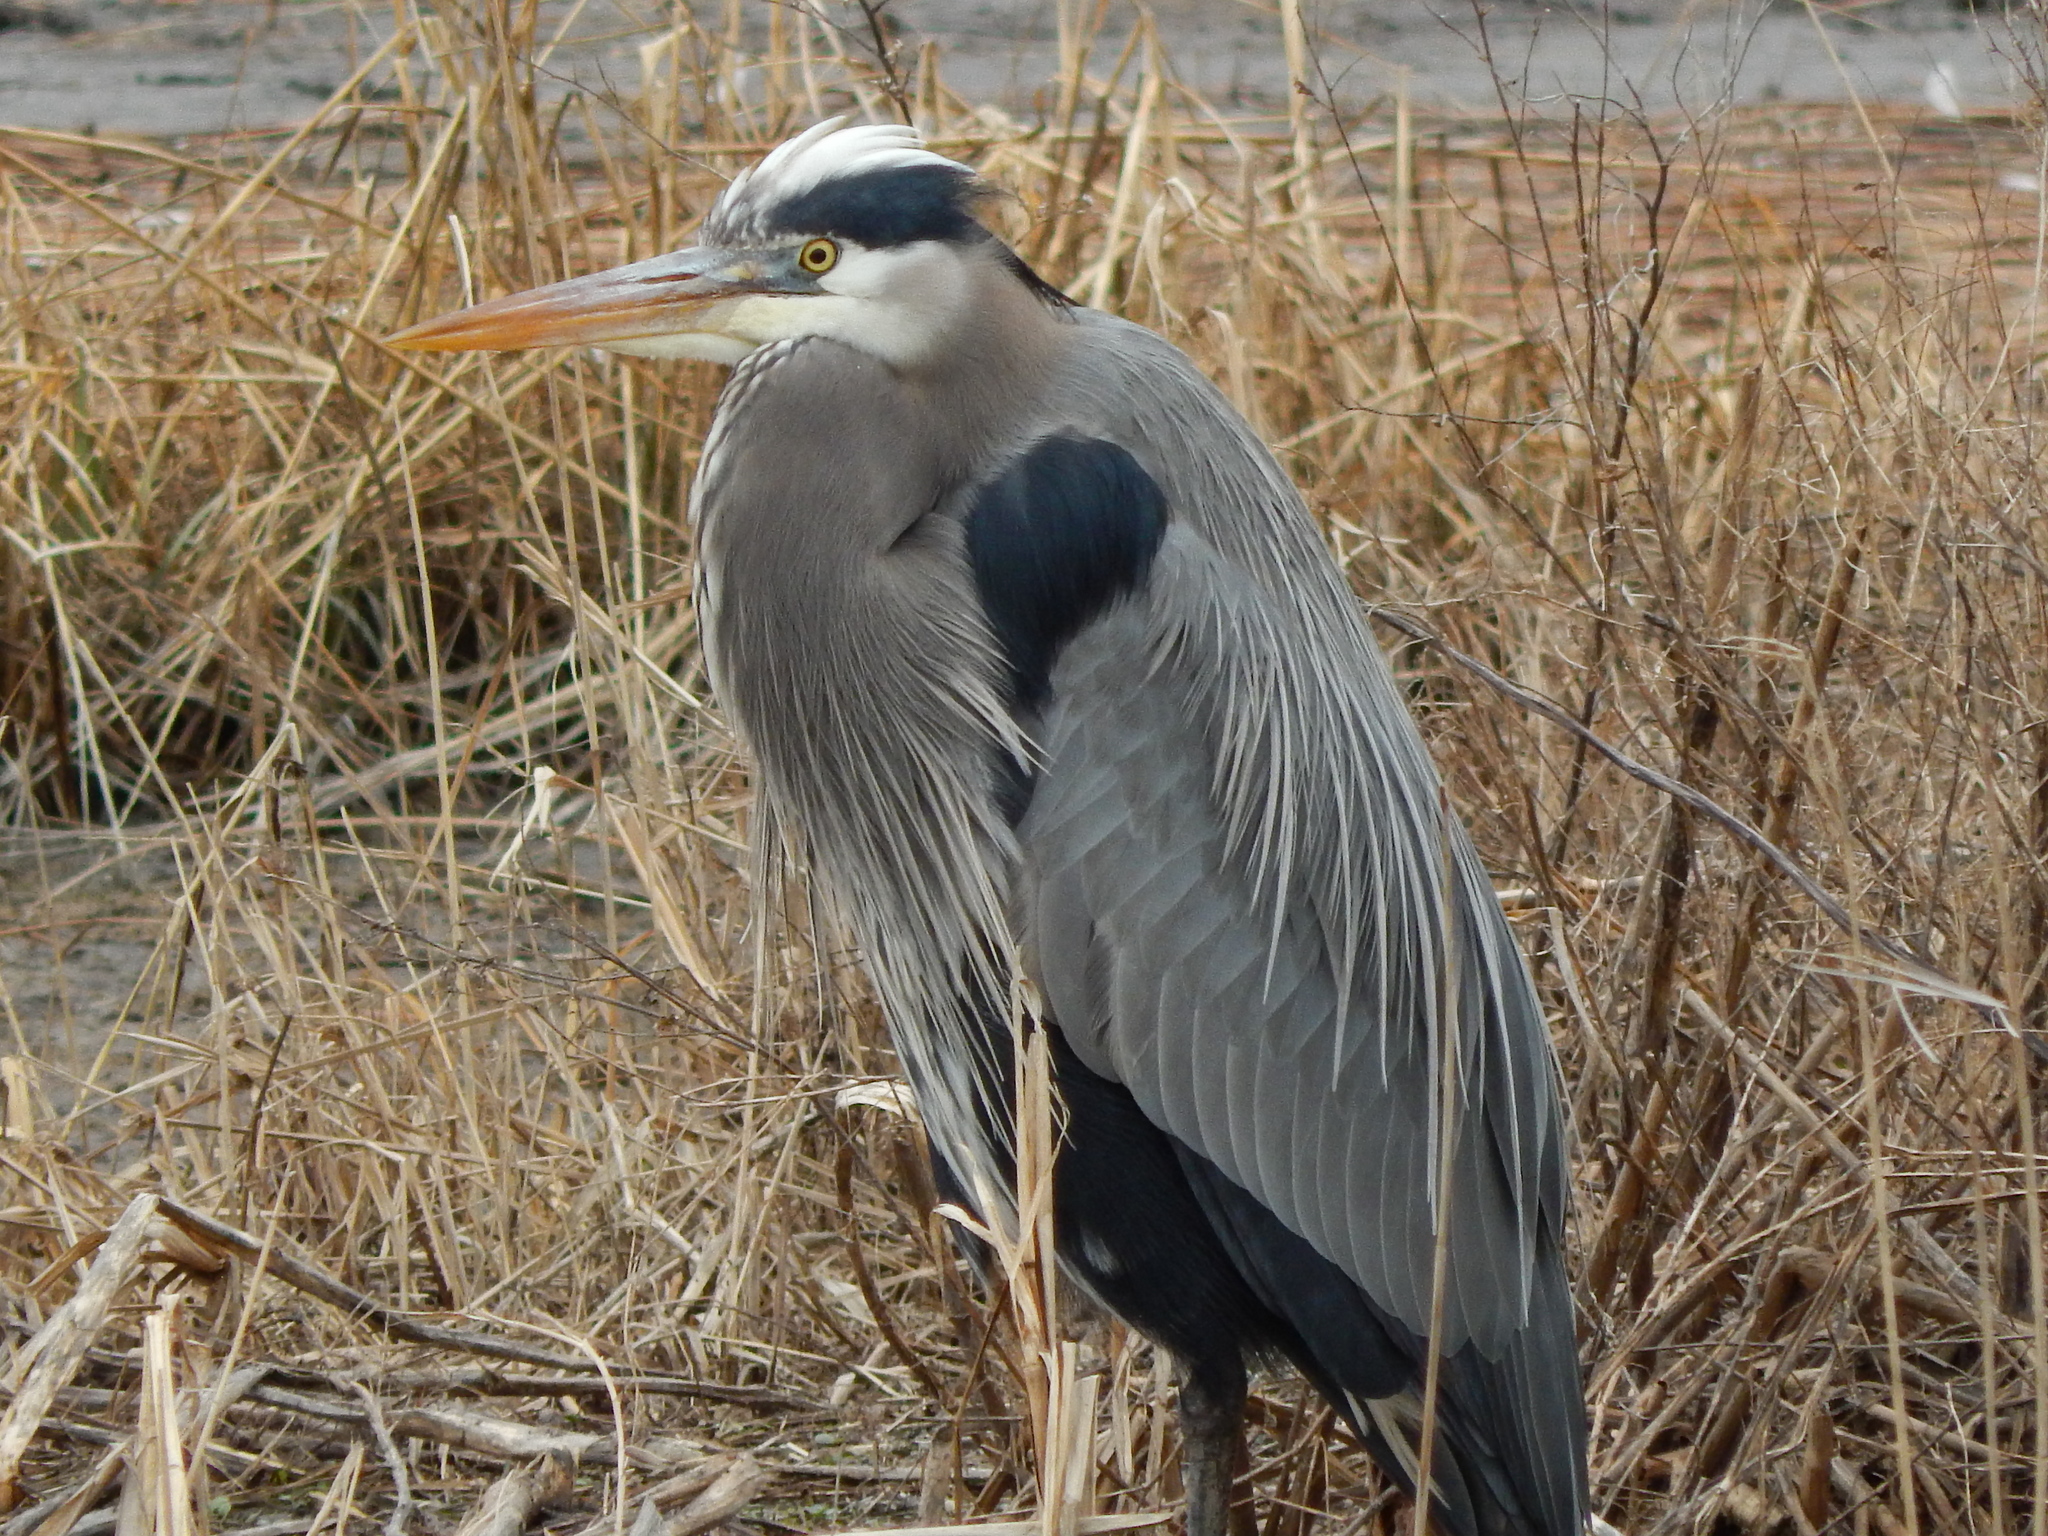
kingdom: Animalia
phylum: Chordata
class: Aves
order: Pelecaniformes
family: Ardeidae
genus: Ardea
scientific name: Ardea herodias
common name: Great blue heron
